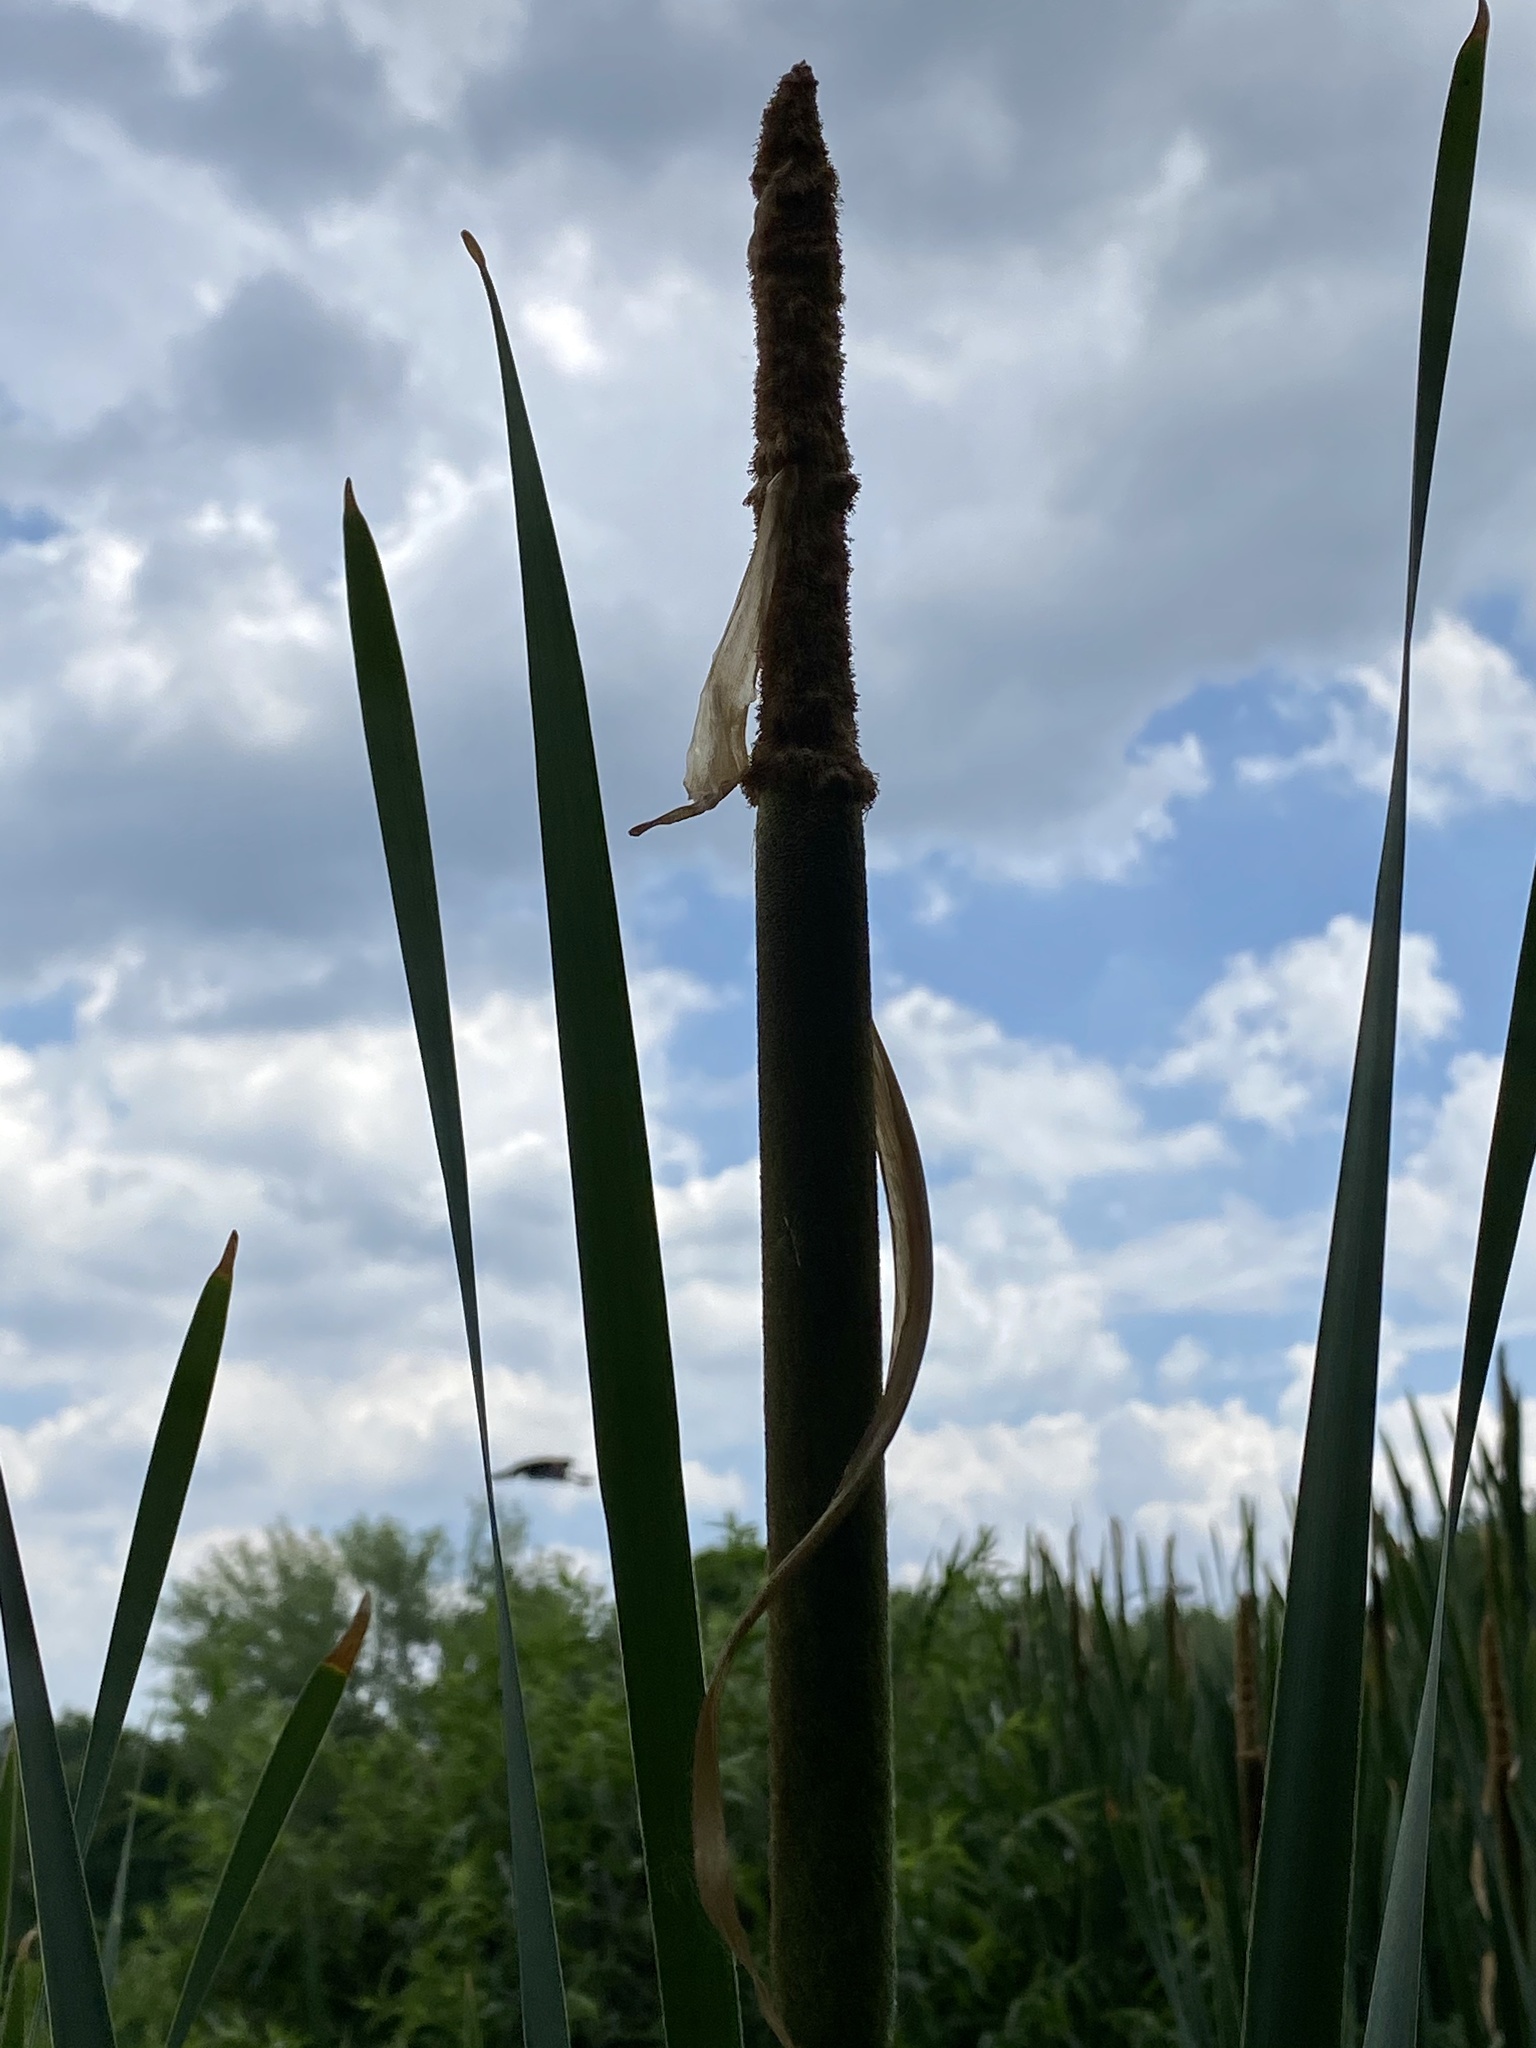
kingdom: Plantae
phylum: Tracheophyta
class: Liliopsida
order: Poales
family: Typhaceae
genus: Typha
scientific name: Typha latifolia
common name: Broadleaf cattail
